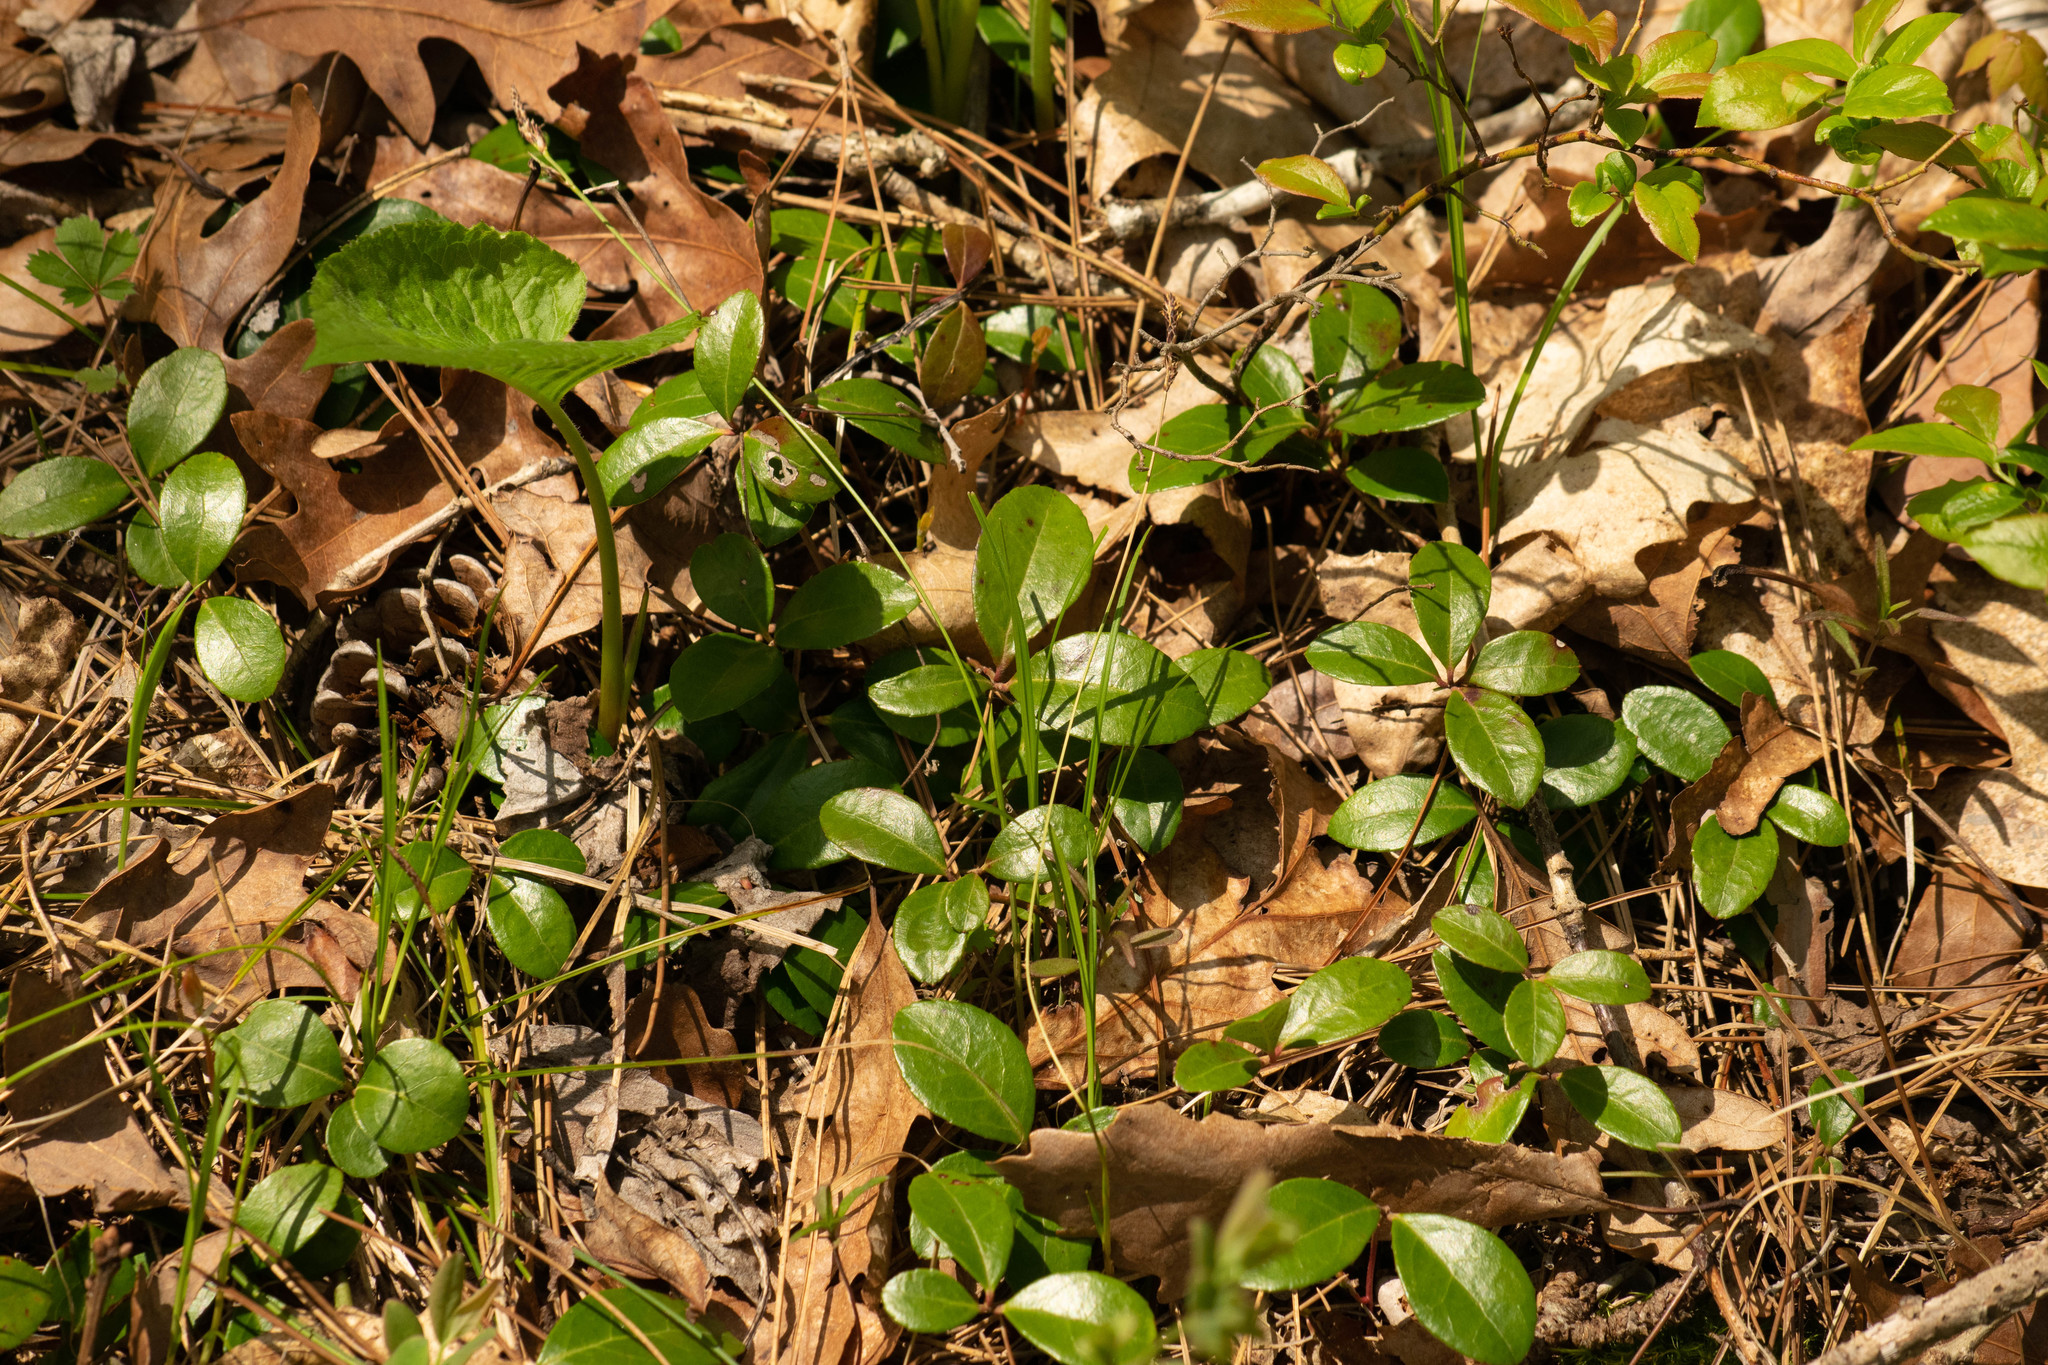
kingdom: Plantae
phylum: Tracheophyta
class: Magnoliopsida
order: Ericales
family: Ericaceae
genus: Gaultheria
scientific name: Gaultheria procumbens
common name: Checkerberry
